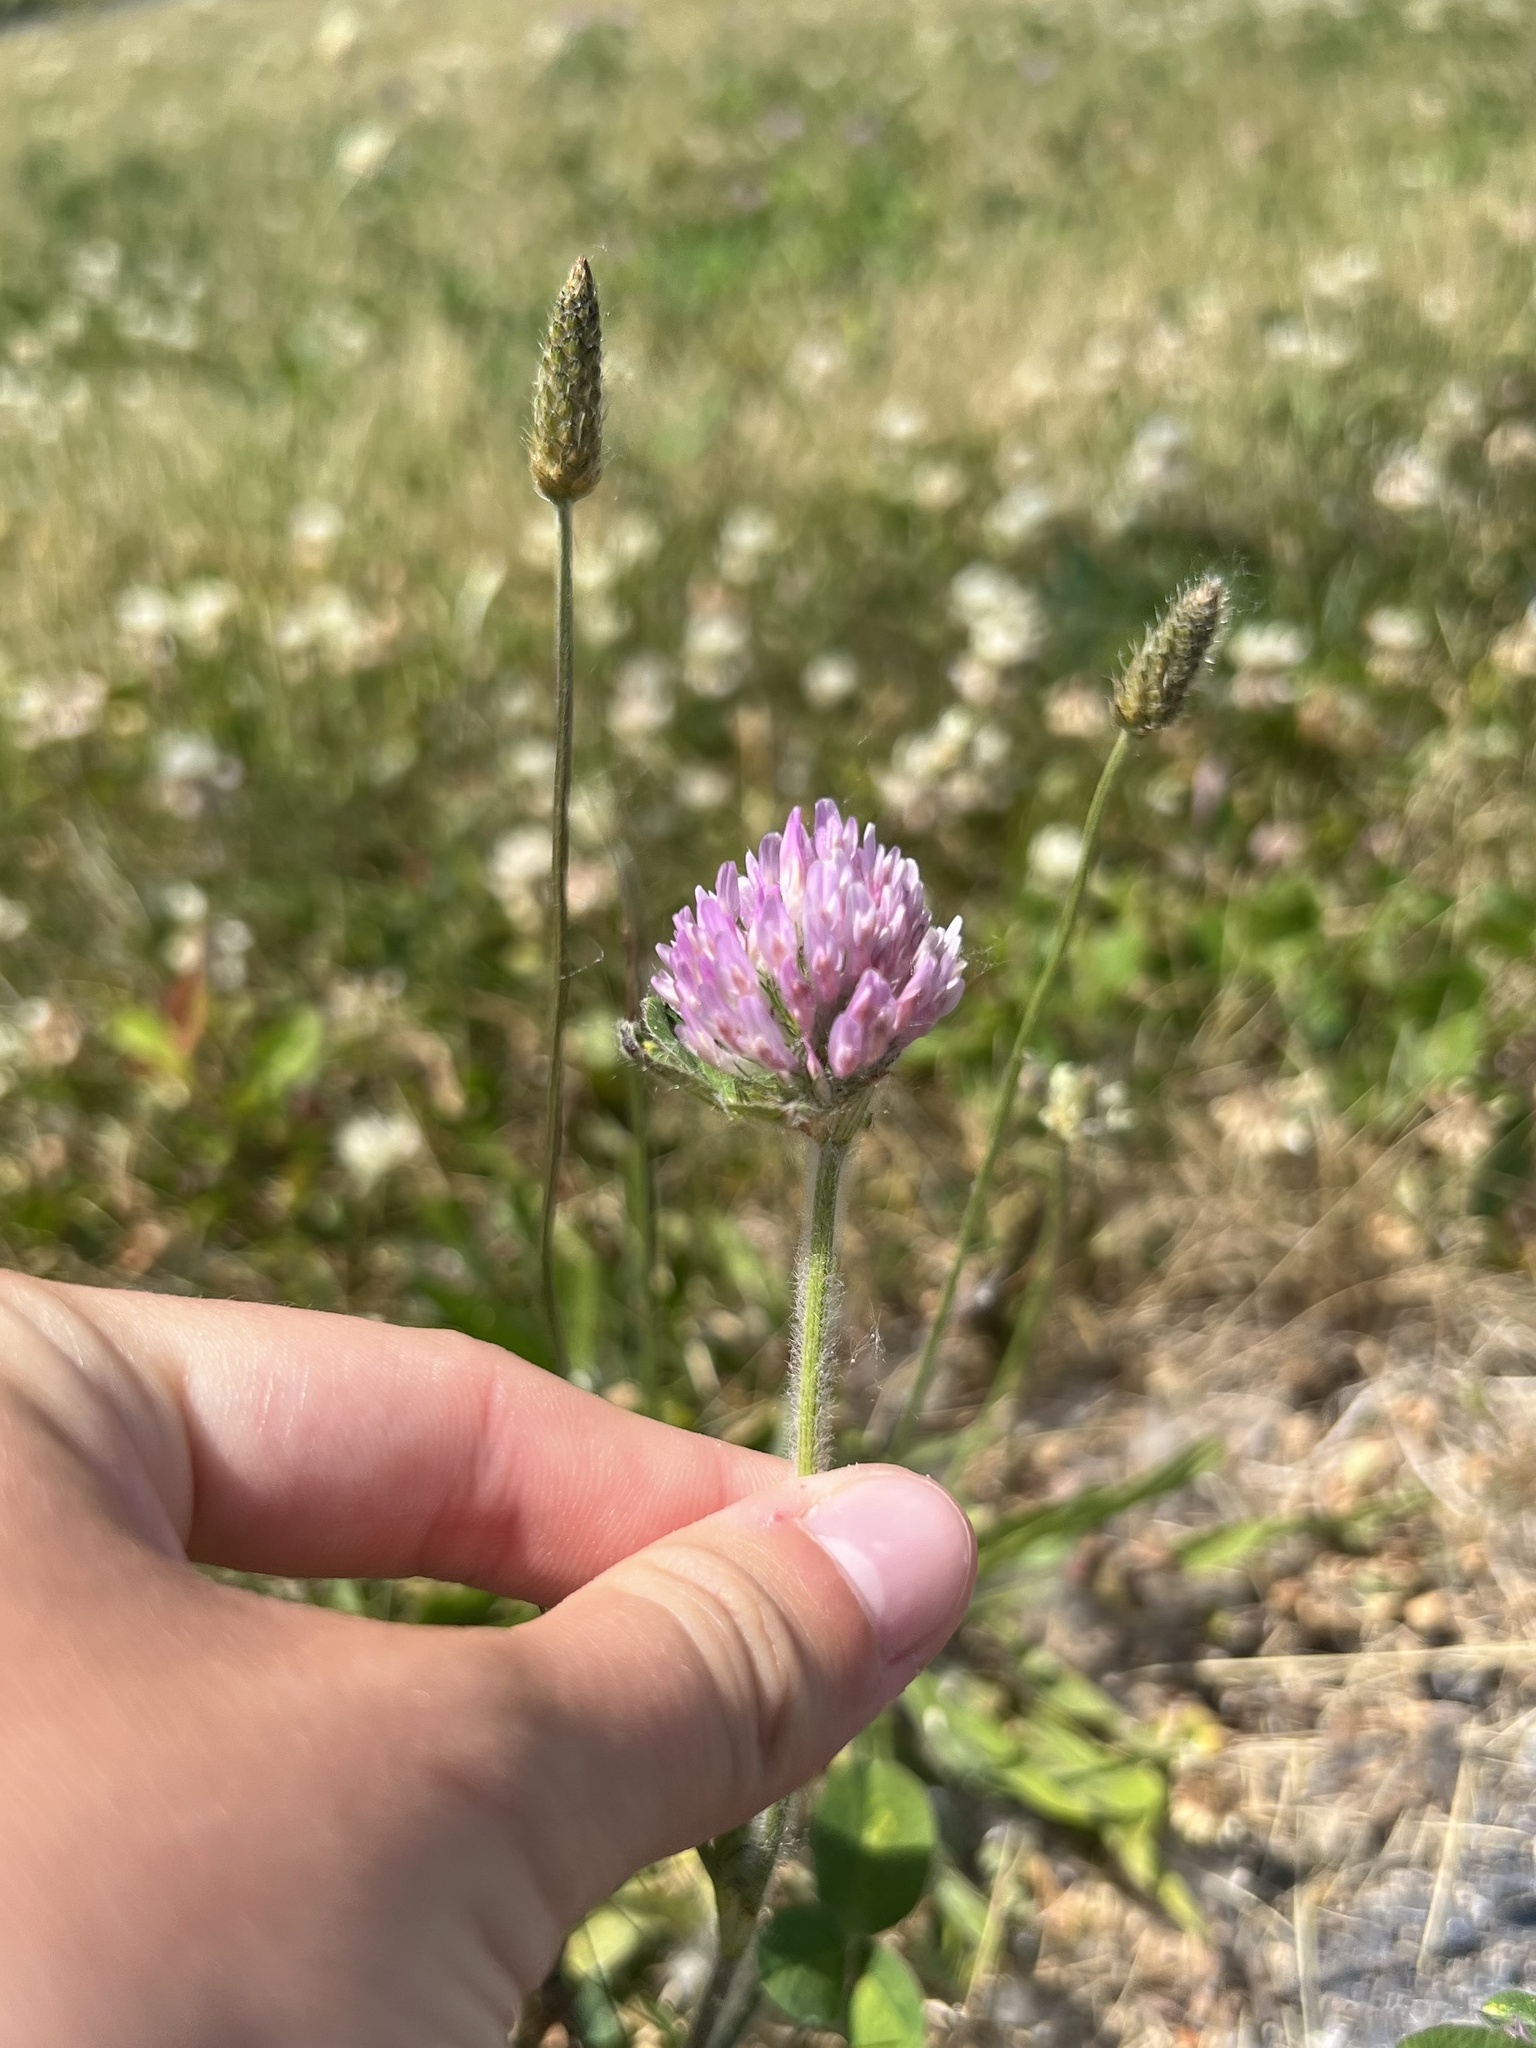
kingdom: Plantae
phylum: Tracheophyta
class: Magnoliopsida
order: Fabales
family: Fabaceae
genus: Trifolium
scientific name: Trifolium pratense
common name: Red clover
